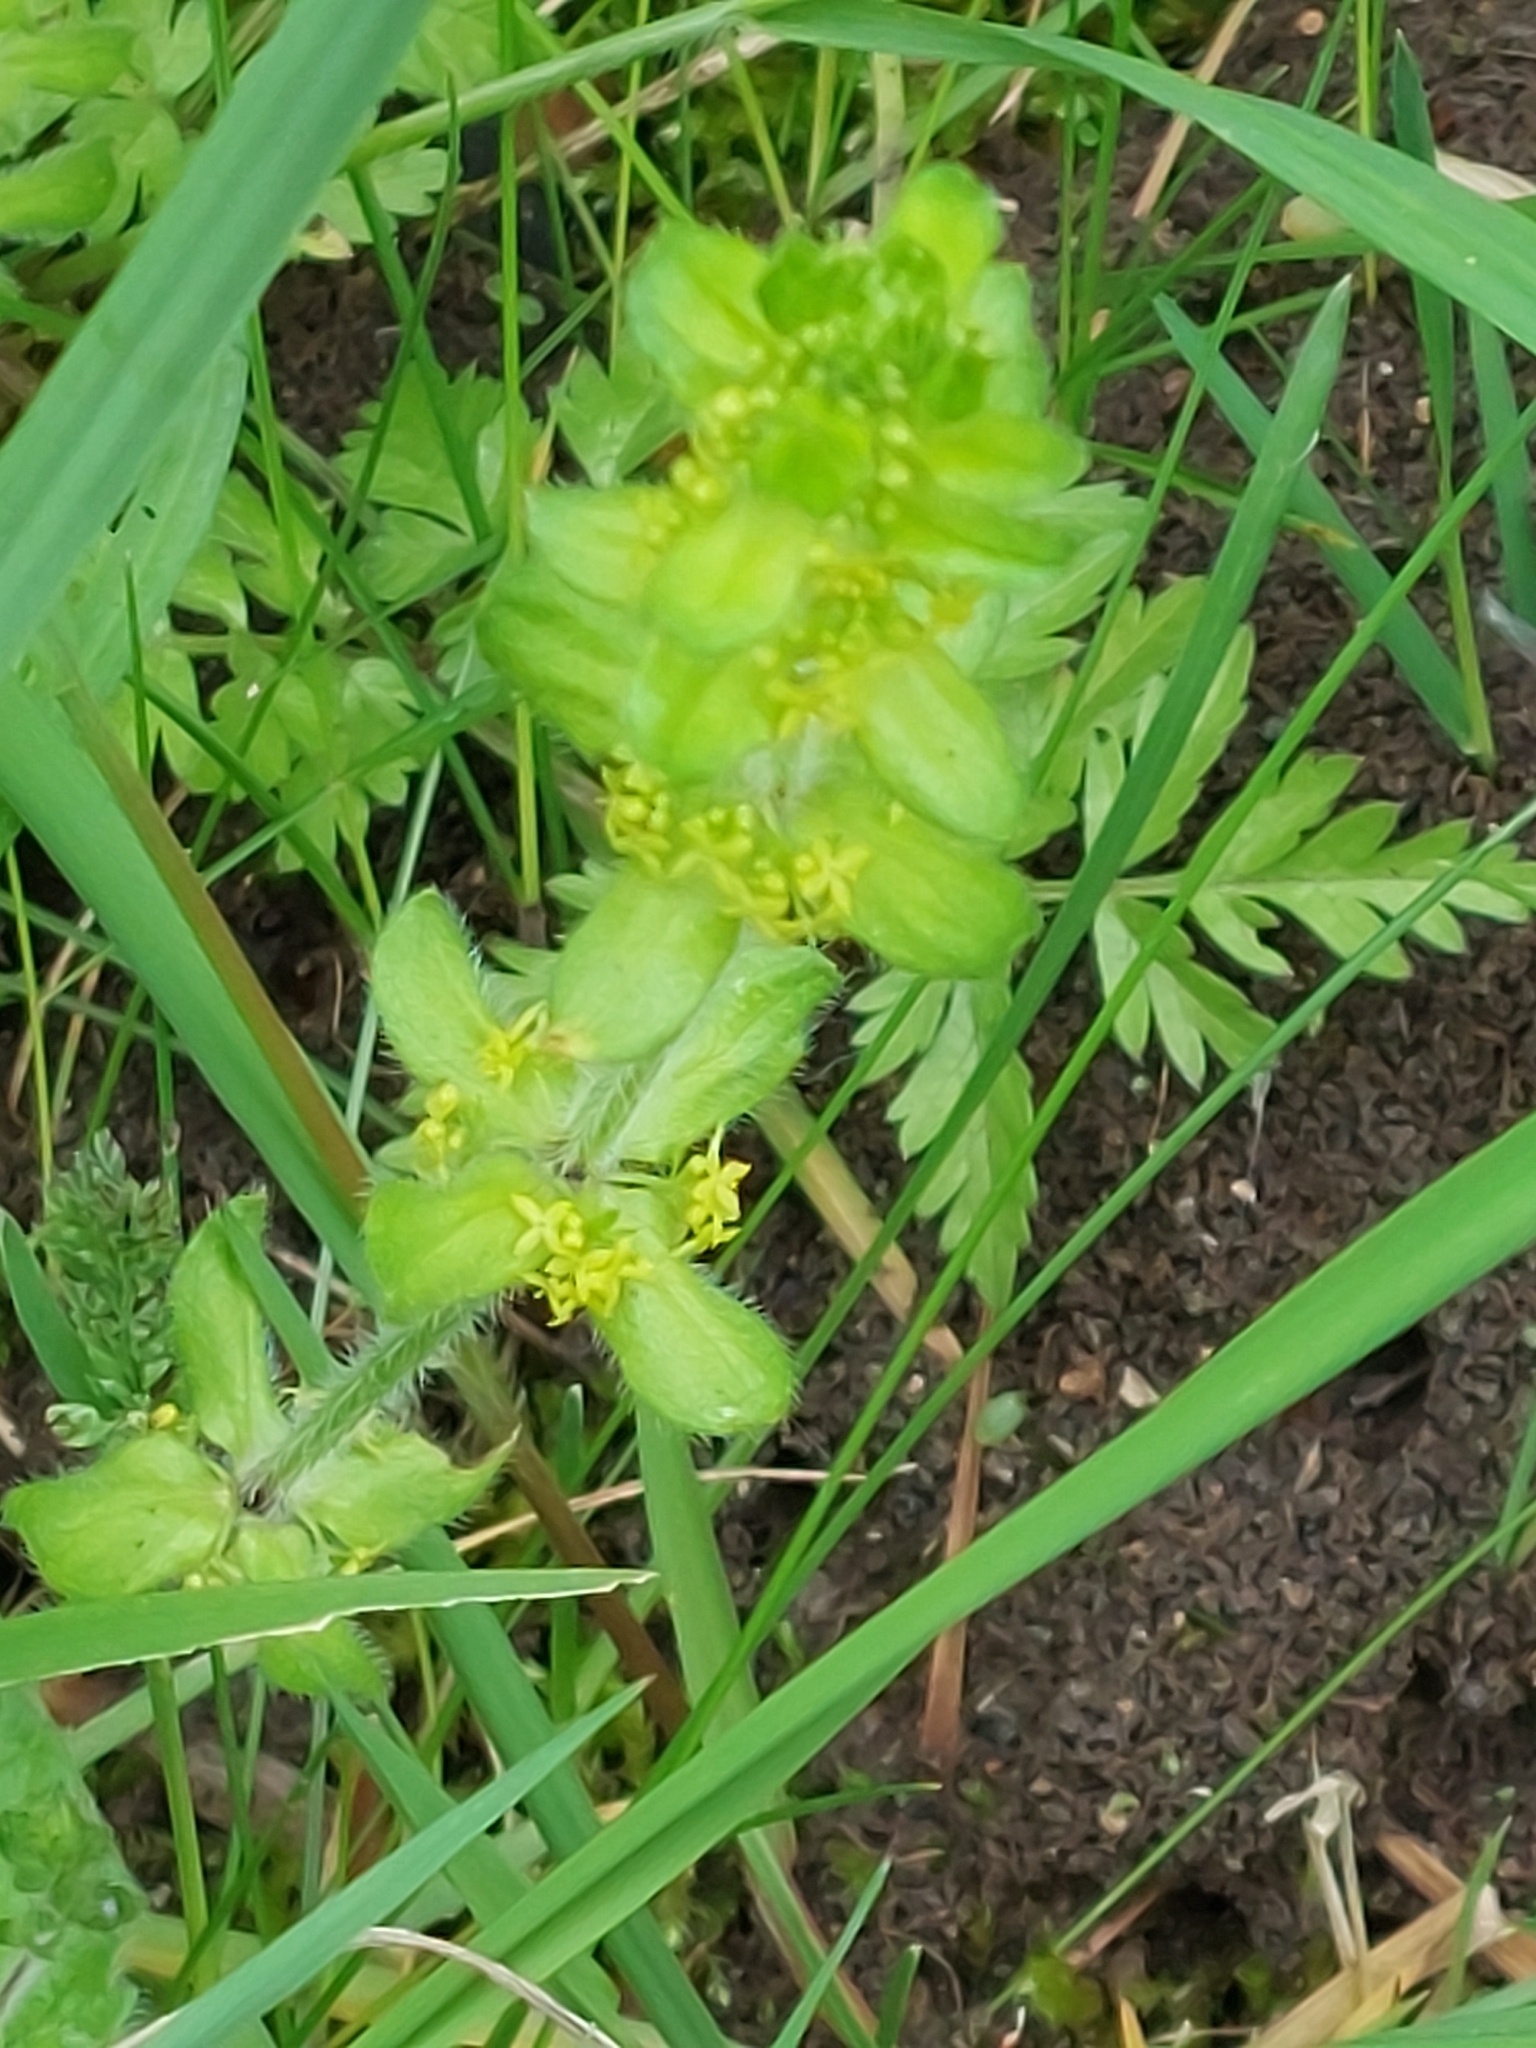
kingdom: Plantae
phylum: Tracheophyta
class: Magnoliopsida
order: Gentianales
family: Rubiaceae
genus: Cruciata
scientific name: Cruciata laevipes
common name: Crosswort
